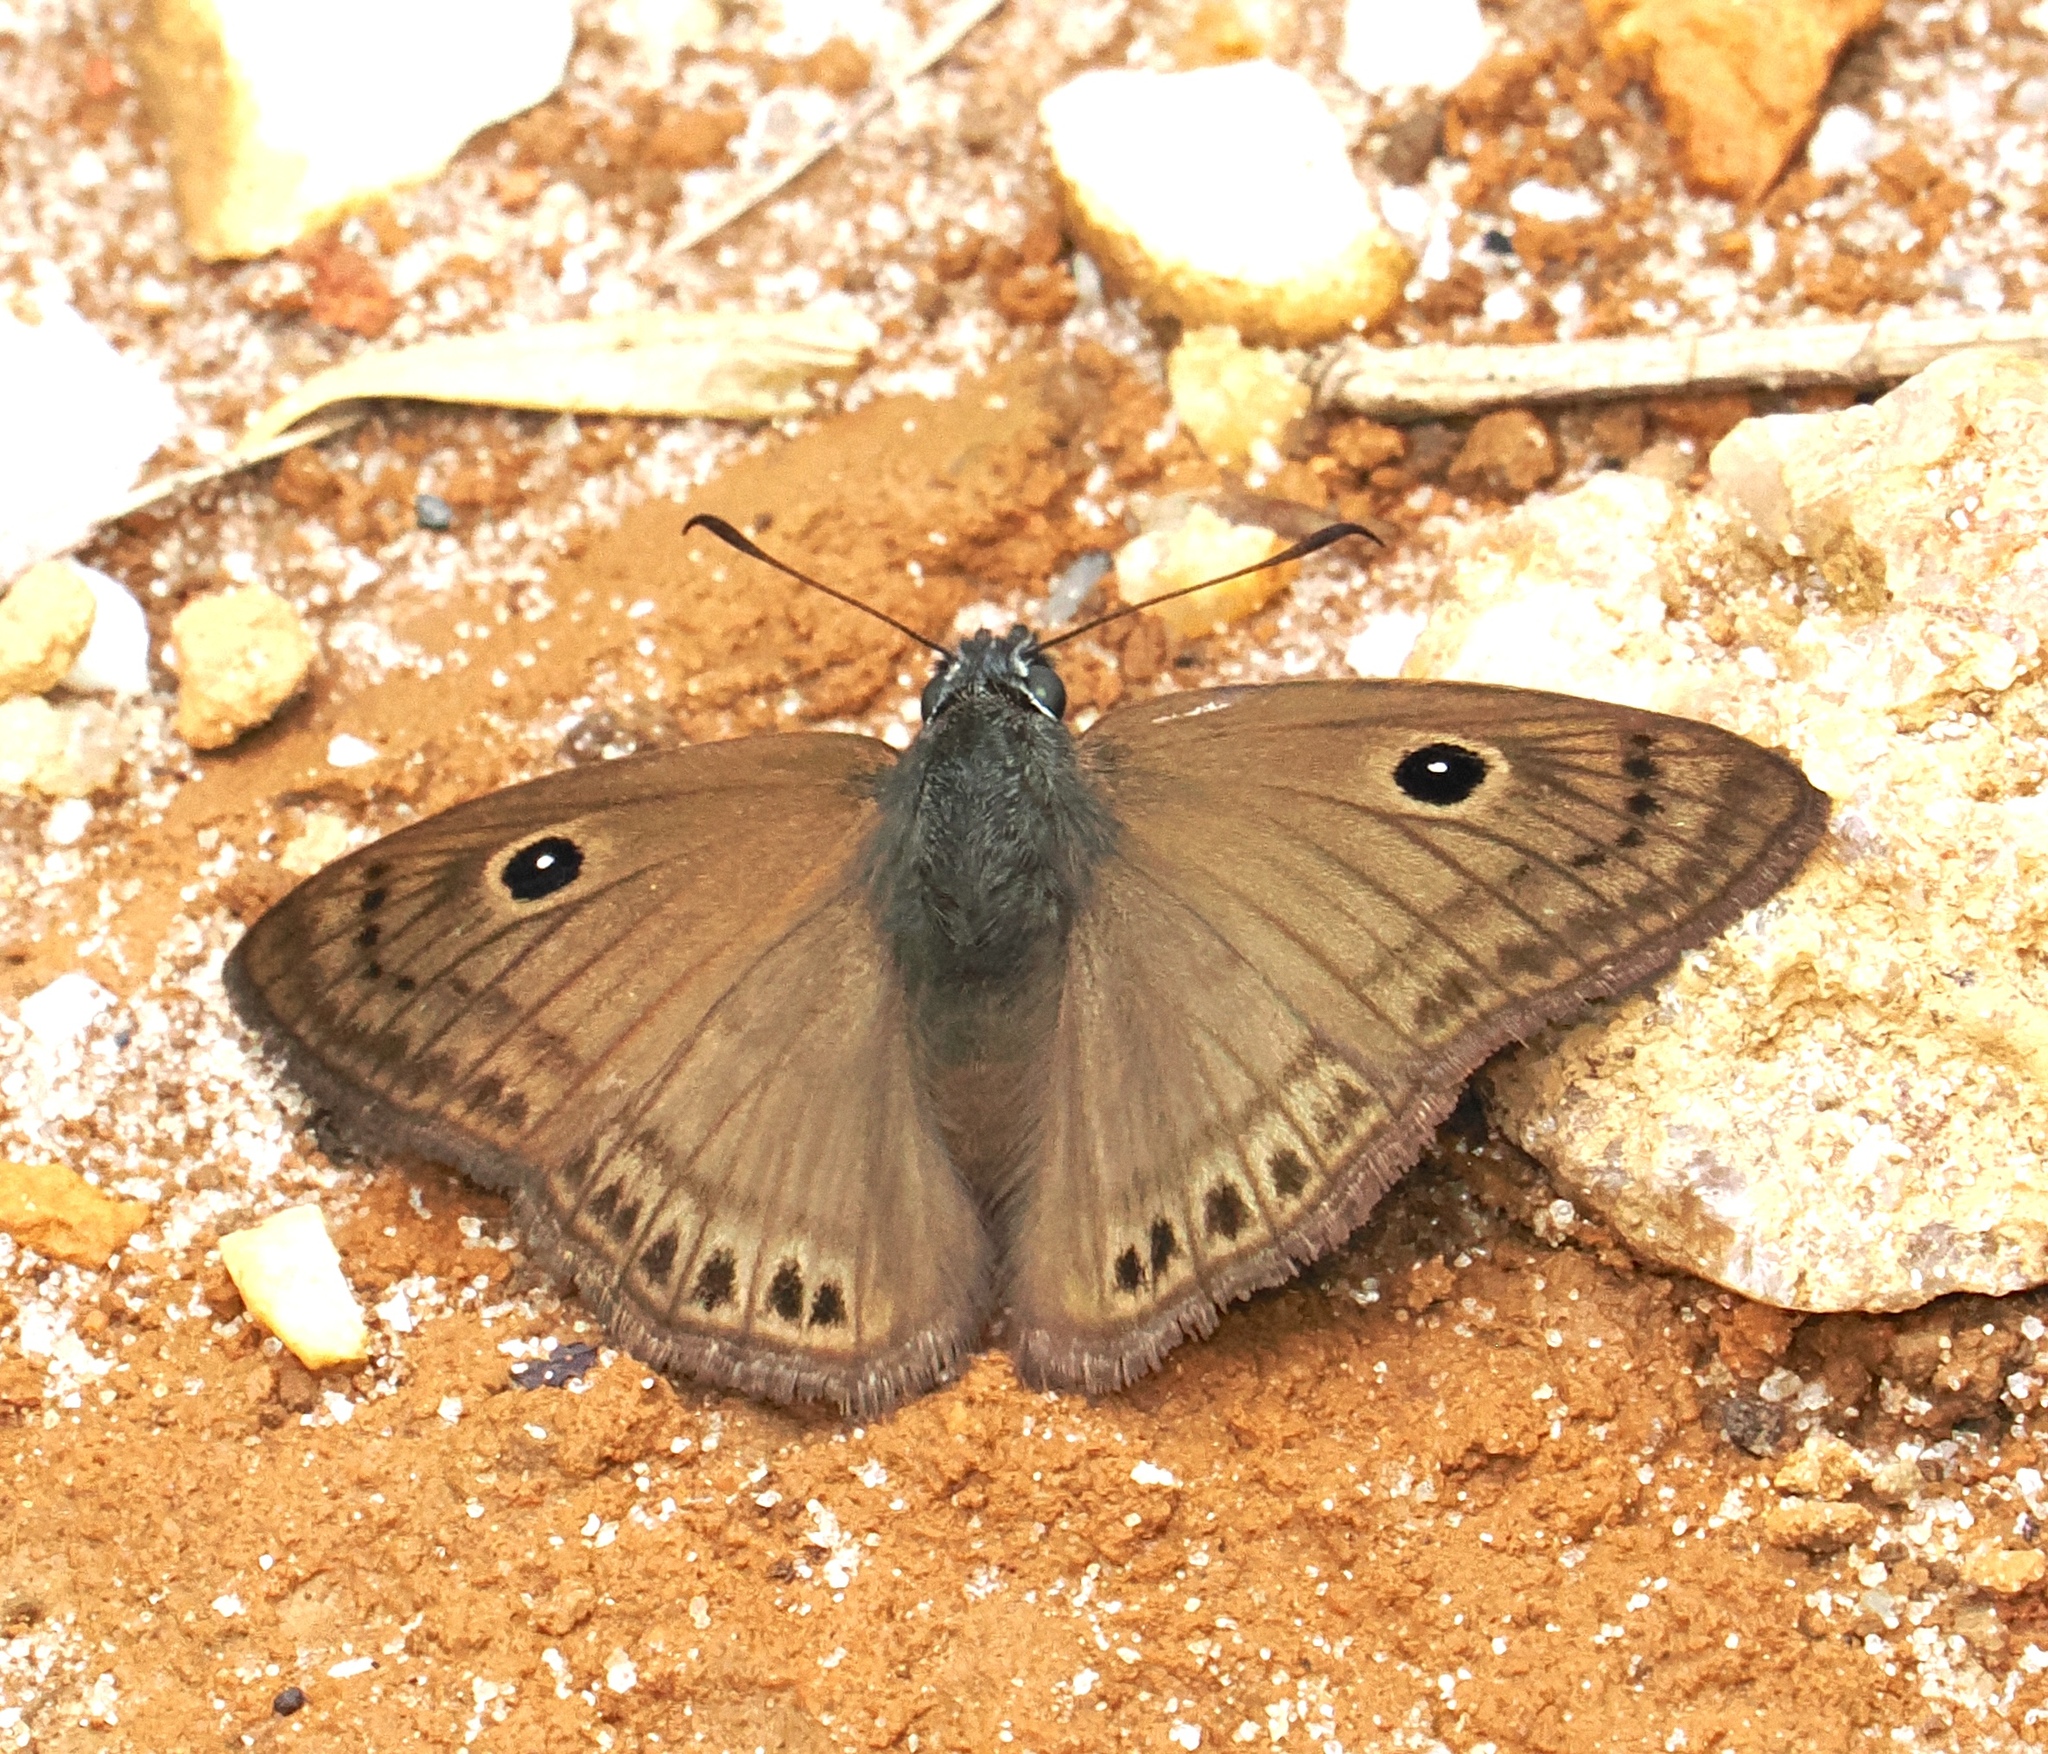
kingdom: Animalia
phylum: Arthropoda
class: Insecta
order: Lepidoptera
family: Hesperiidae
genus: Ocella
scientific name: Ocella monophthalma
